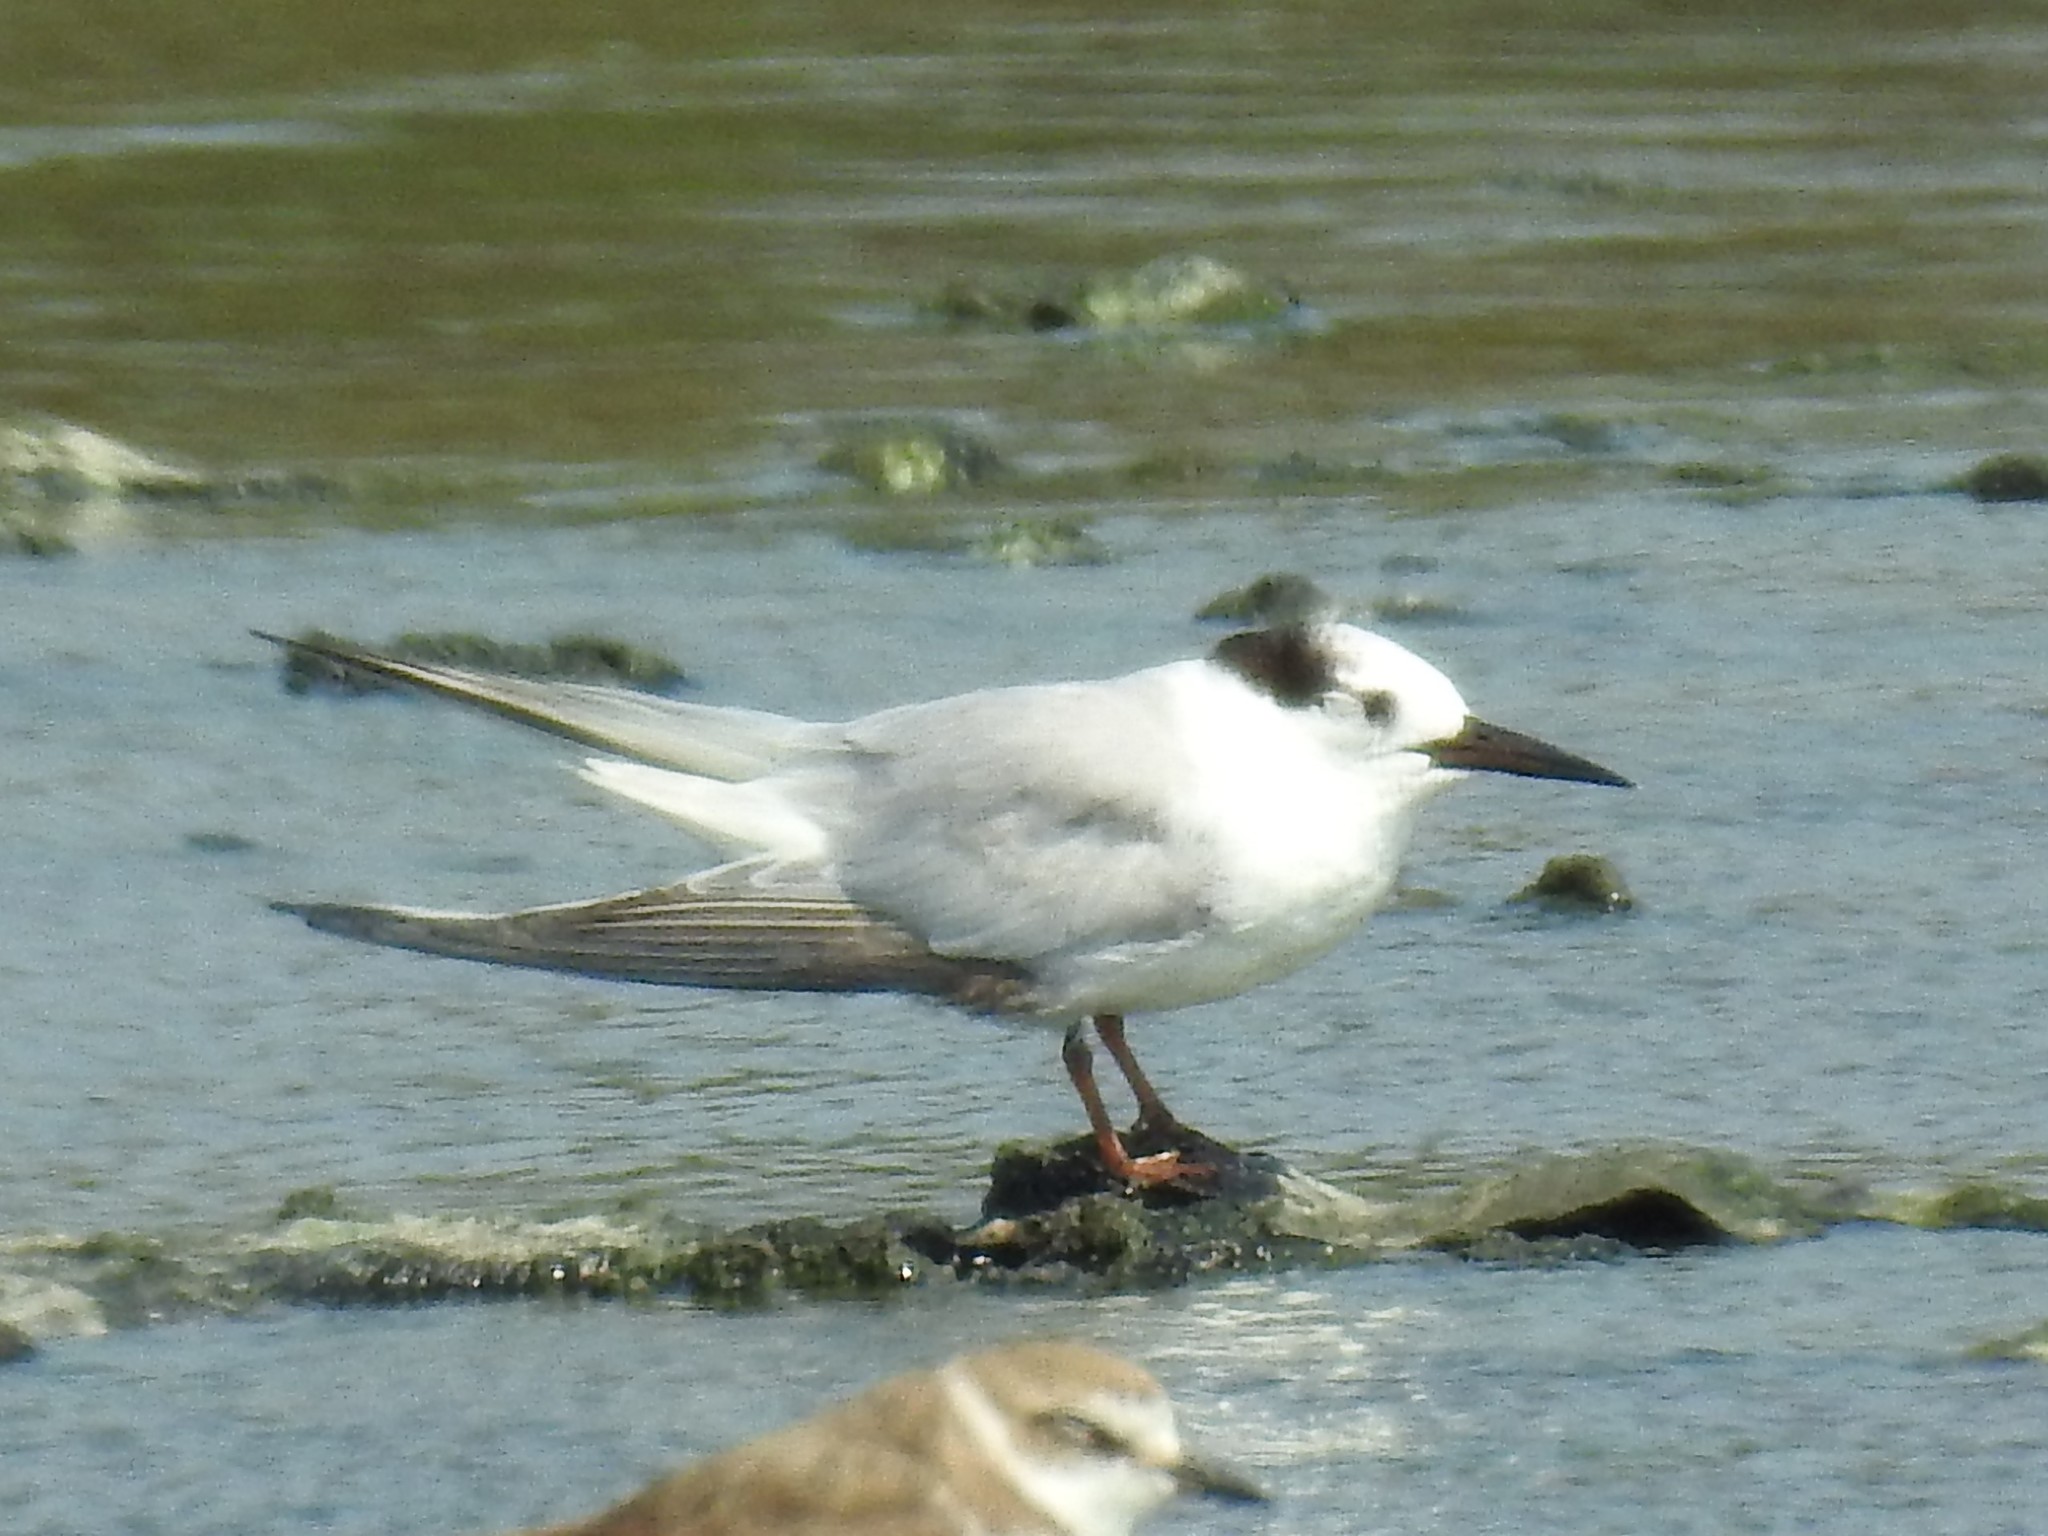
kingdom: Animalia
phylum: Chordata
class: Aves
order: Charadriiformes
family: Laridae
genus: Sternula
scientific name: Sternula albifrons
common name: Little tern
